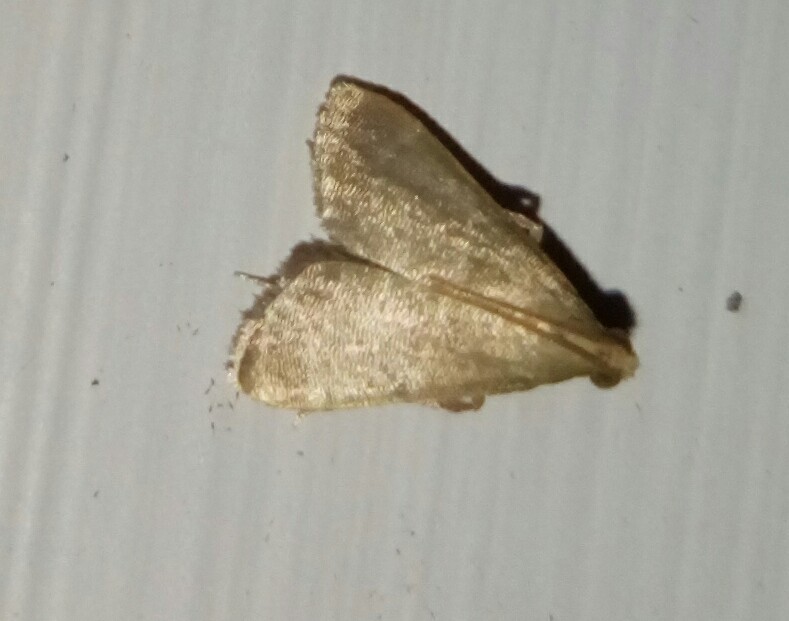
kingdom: Animalia
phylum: Arthropoda
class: Insecta
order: Lepidoptera
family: Pyralidae
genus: Arta
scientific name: Arta olivalis
